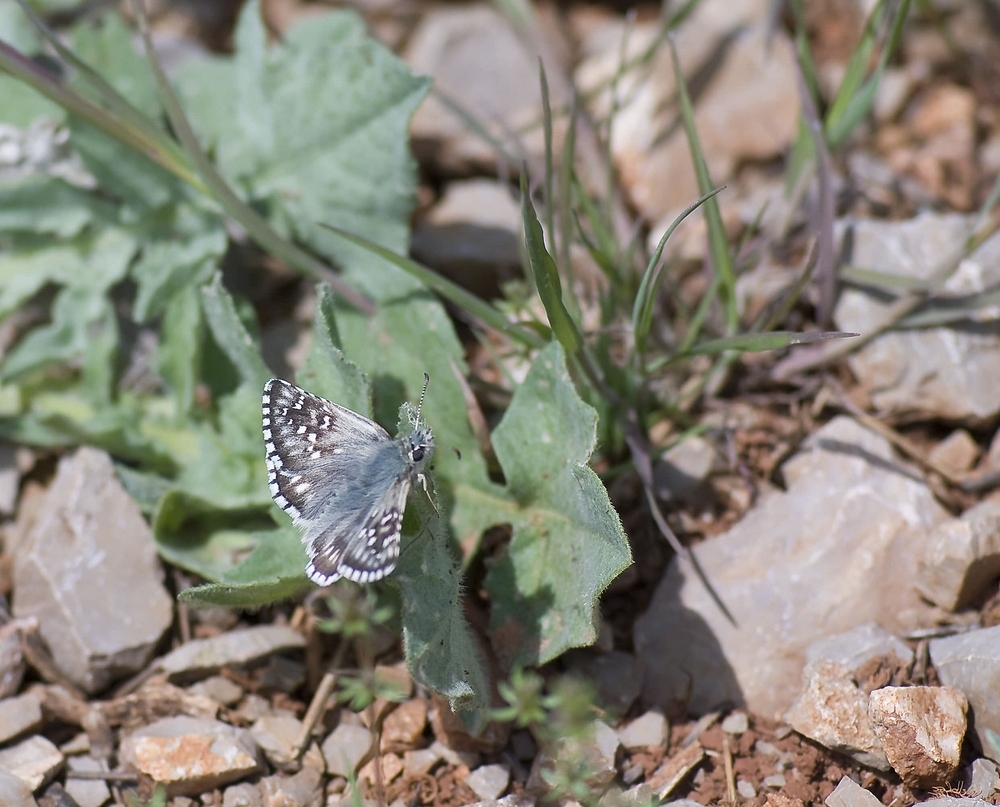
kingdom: Animalia
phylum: Arthropoda
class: Insecta
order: Lepidoptera
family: Hesperiidae
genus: Pyrgus
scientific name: Pyrgus fritillarius
